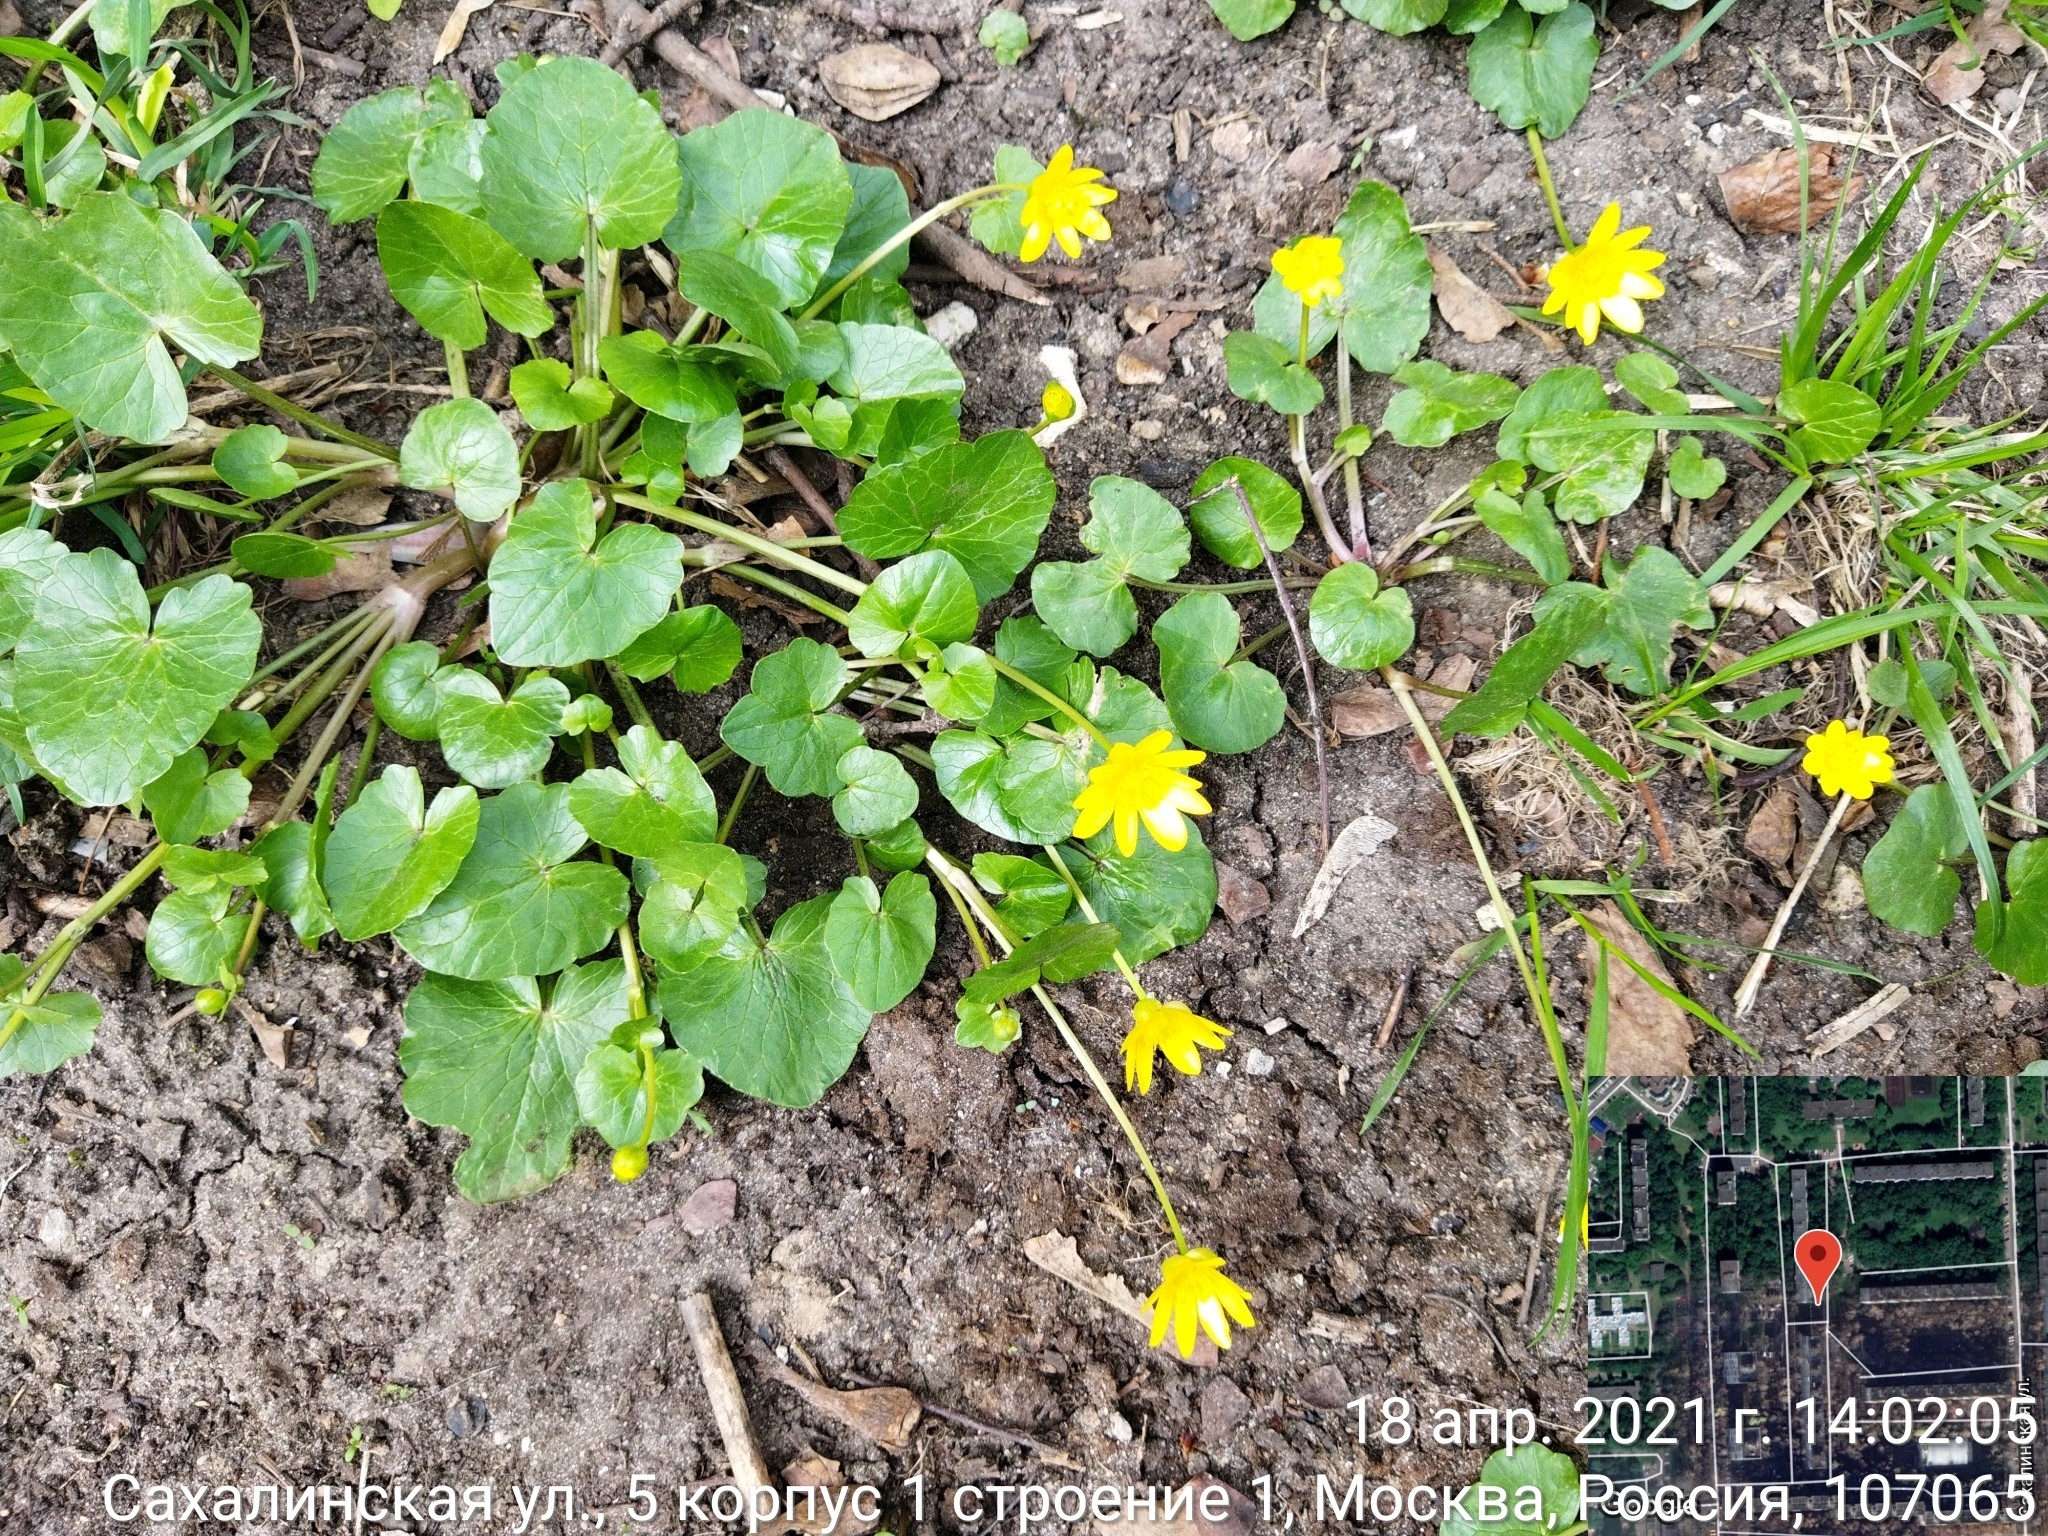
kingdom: Plantae
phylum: Tracheophyta
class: Magnoliopsida
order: Ranunculales
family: Ranunculaceae
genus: Ficaria
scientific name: Ficaria verna
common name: Lesser celandine
